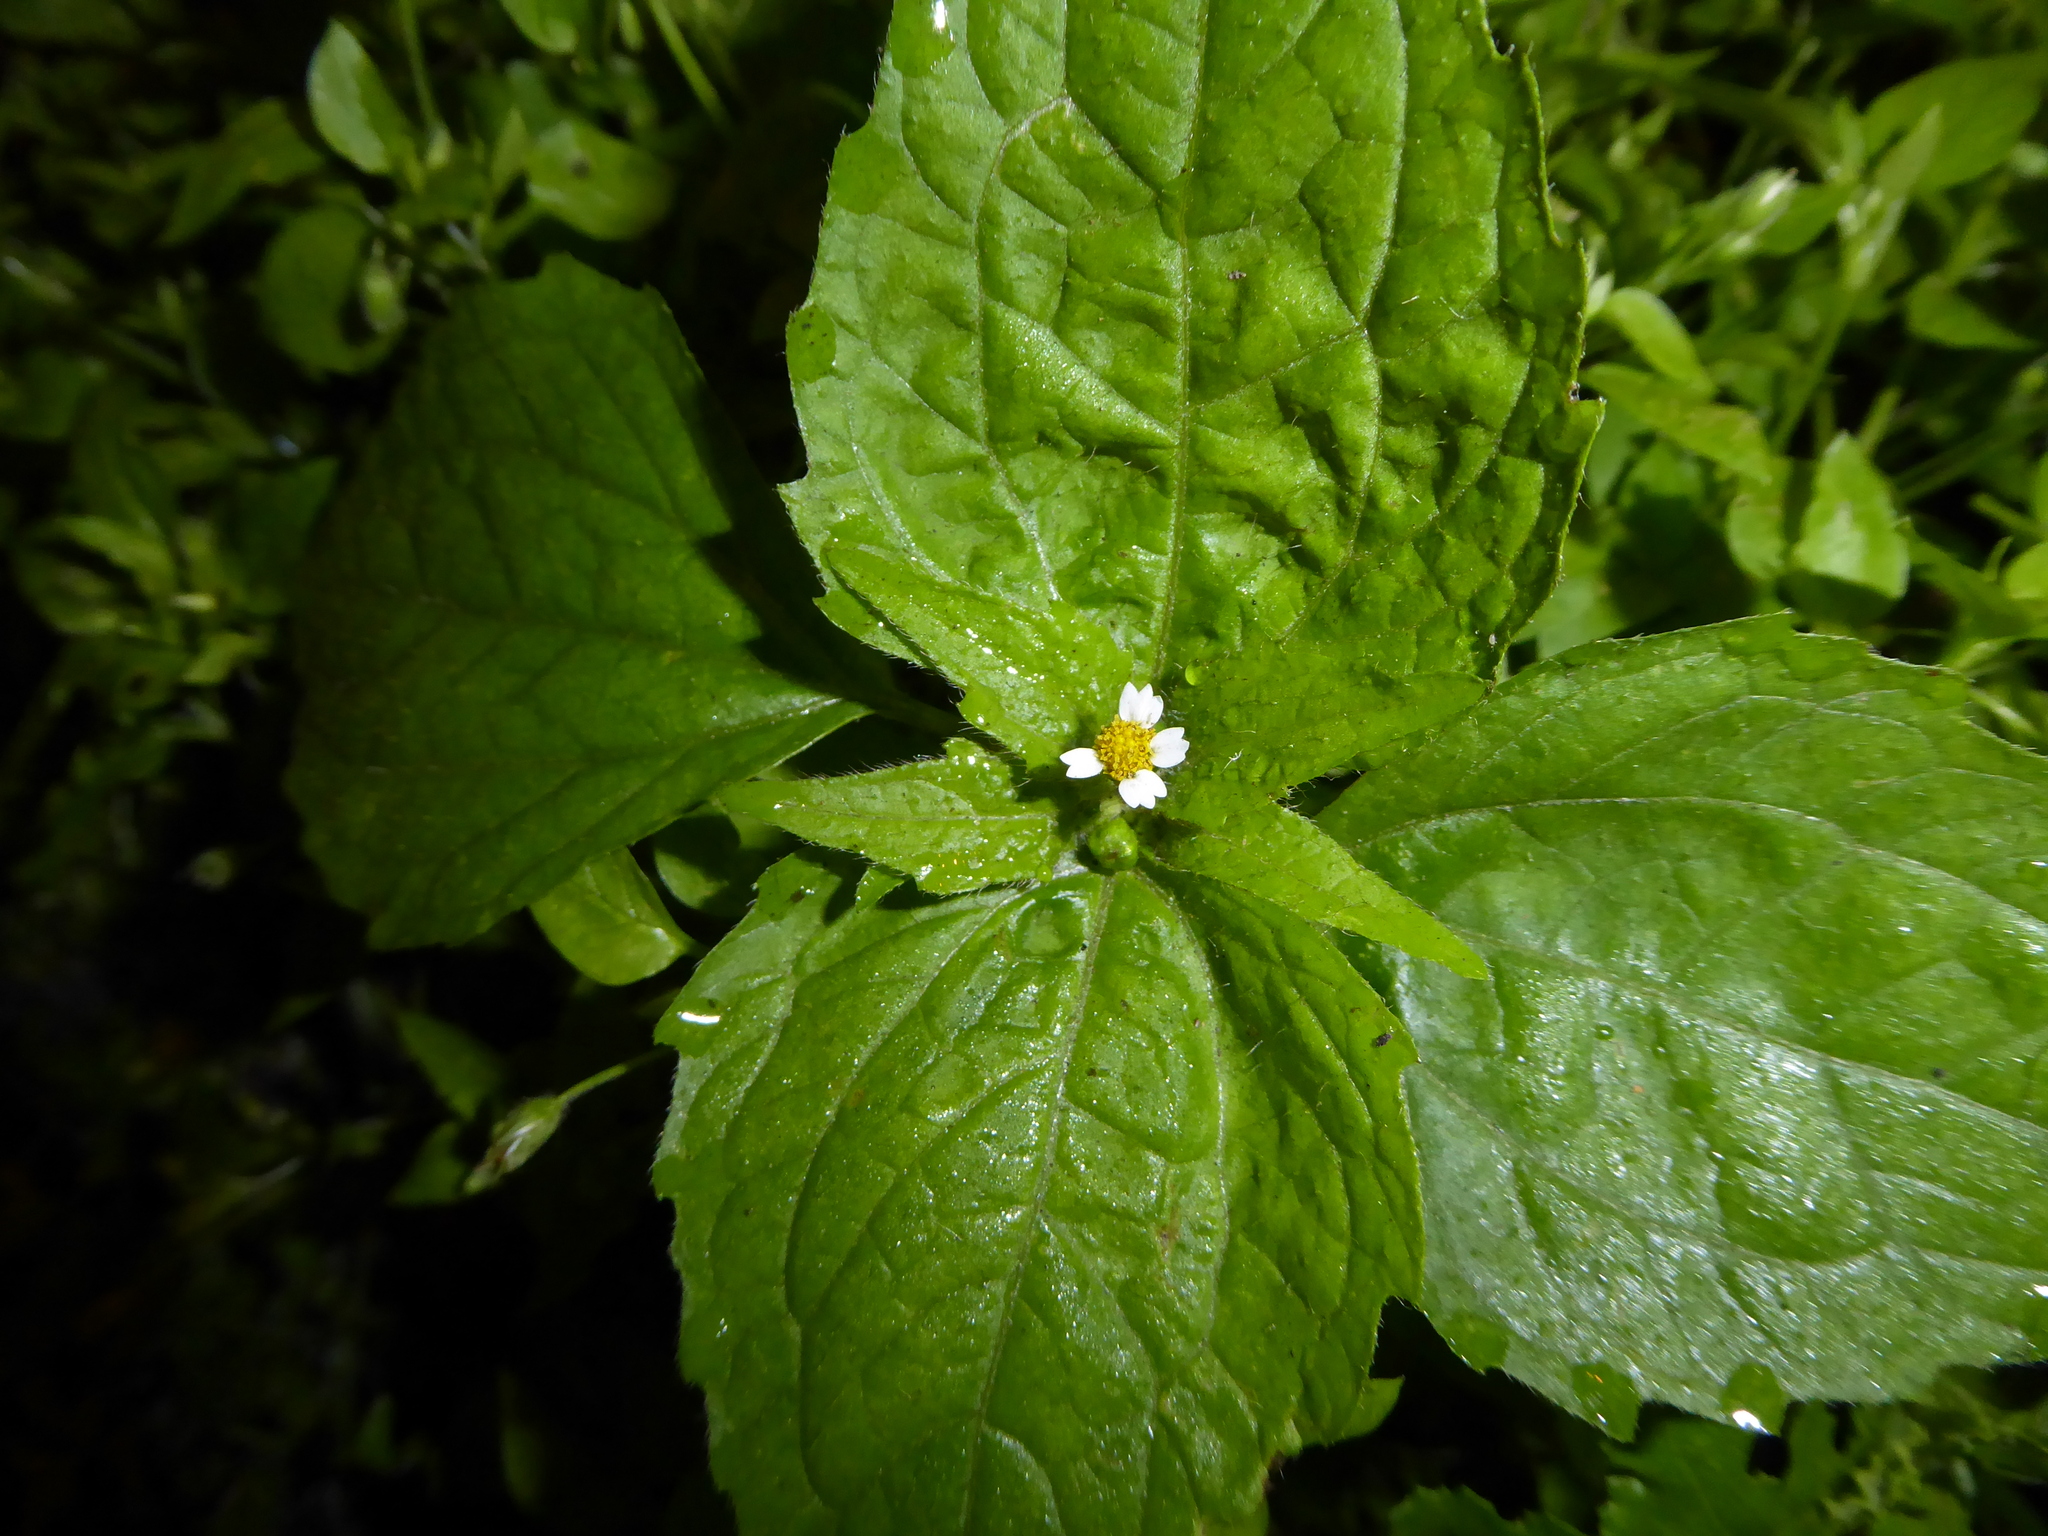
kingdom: Plantae
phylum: Tracheophyta
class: Magnoliopsida
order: Asterales
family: Asteraceae
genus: Galinsoga
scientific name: Galinsoga quadriradiata
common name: Shaggy soldier
